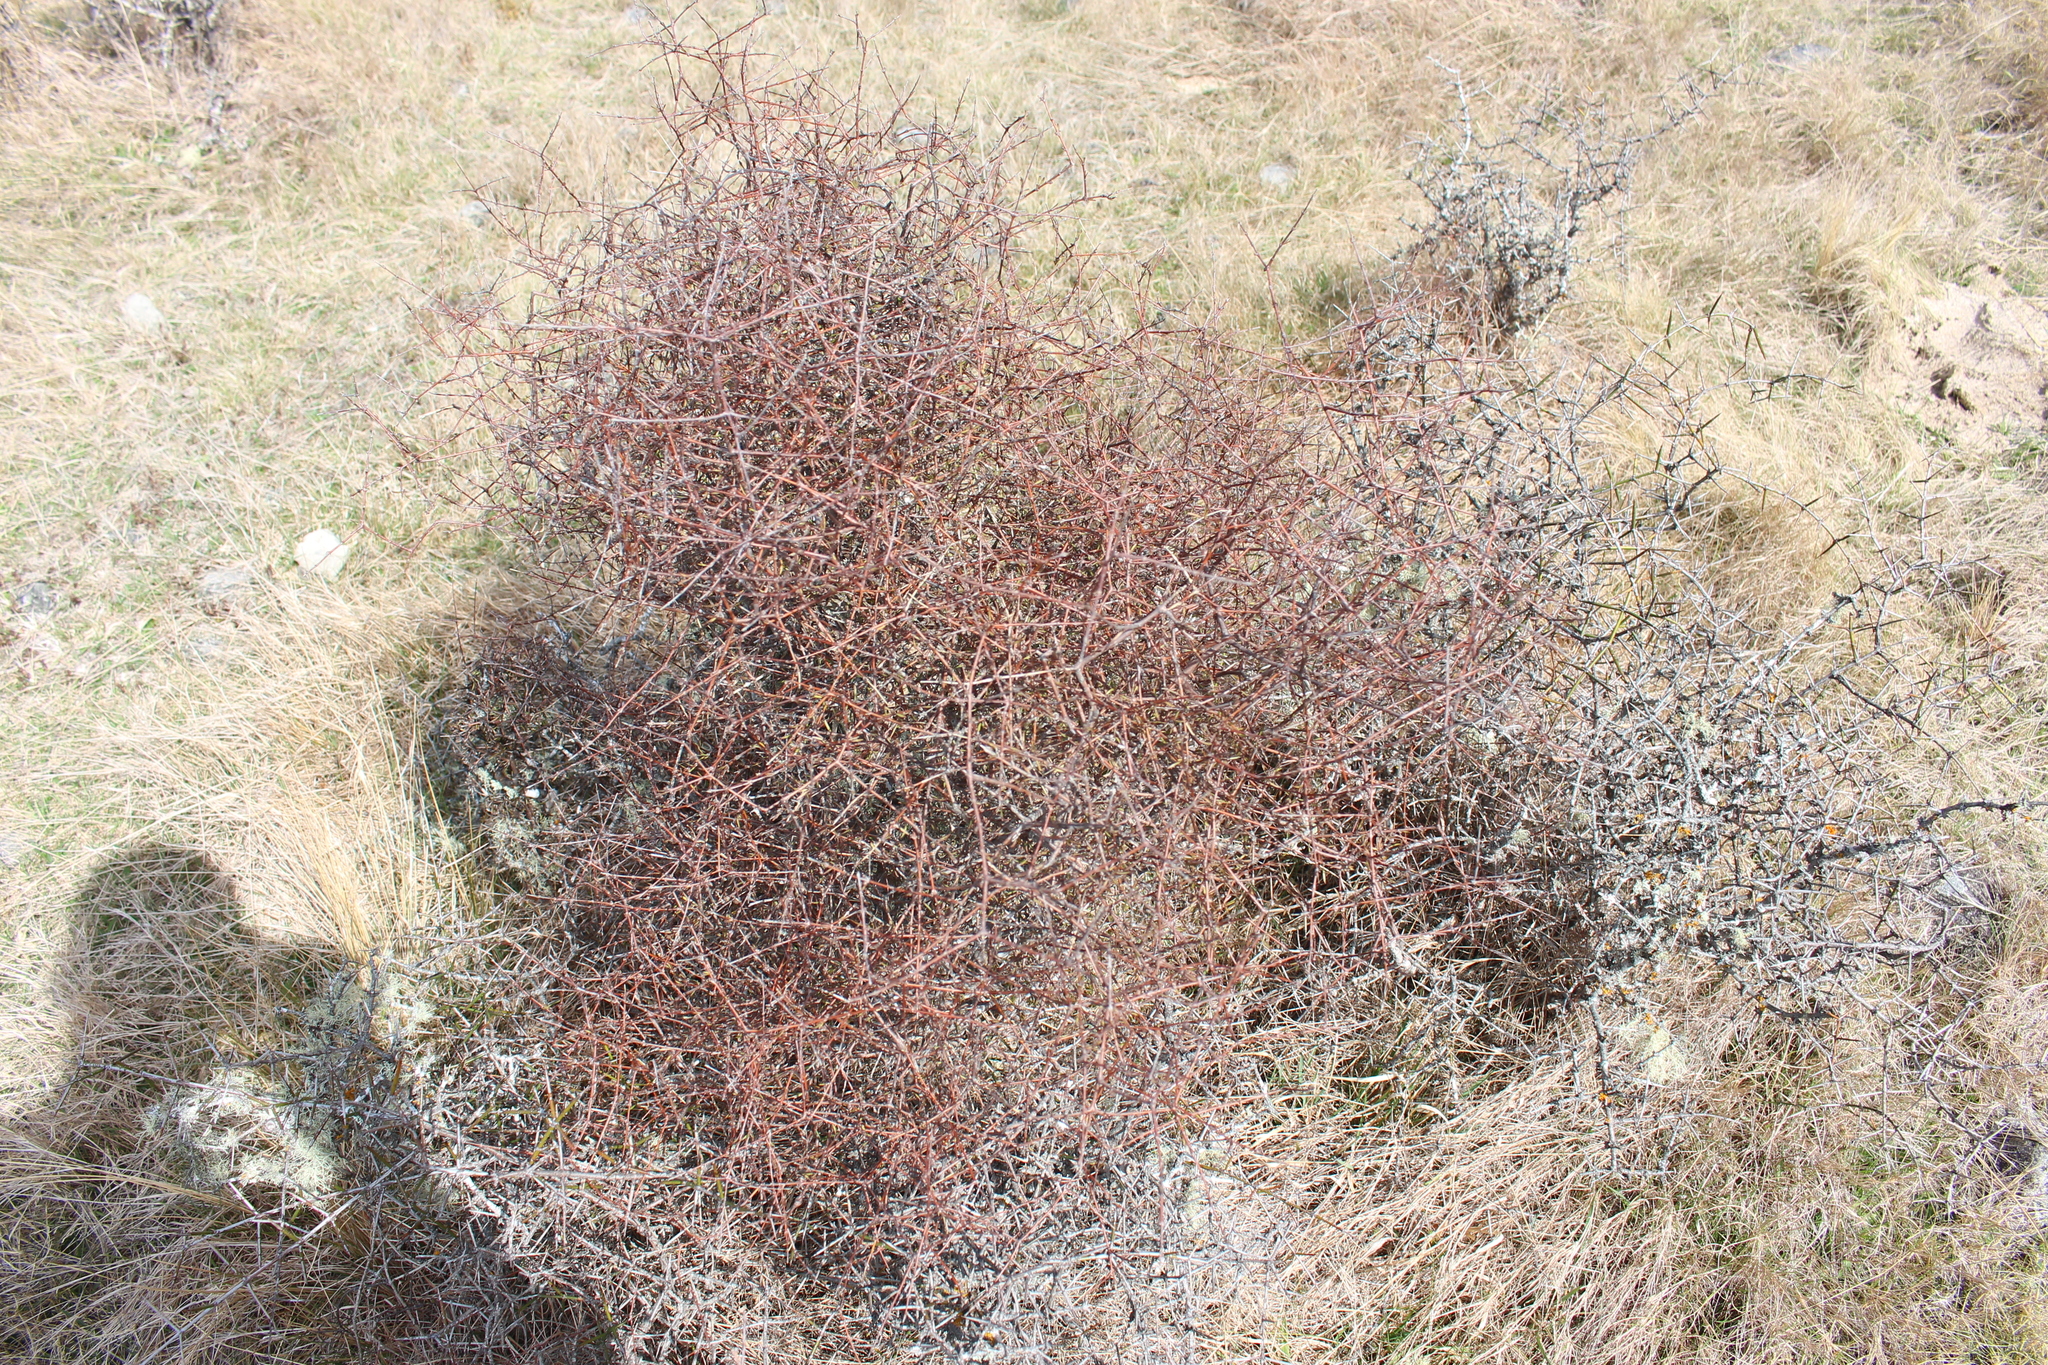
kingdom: Plantae
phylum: Tracheophyta
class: Magnoliopsida
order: Gentianales
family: Rubiaceae
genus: Coprosma
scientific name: Coprosma intertexta
